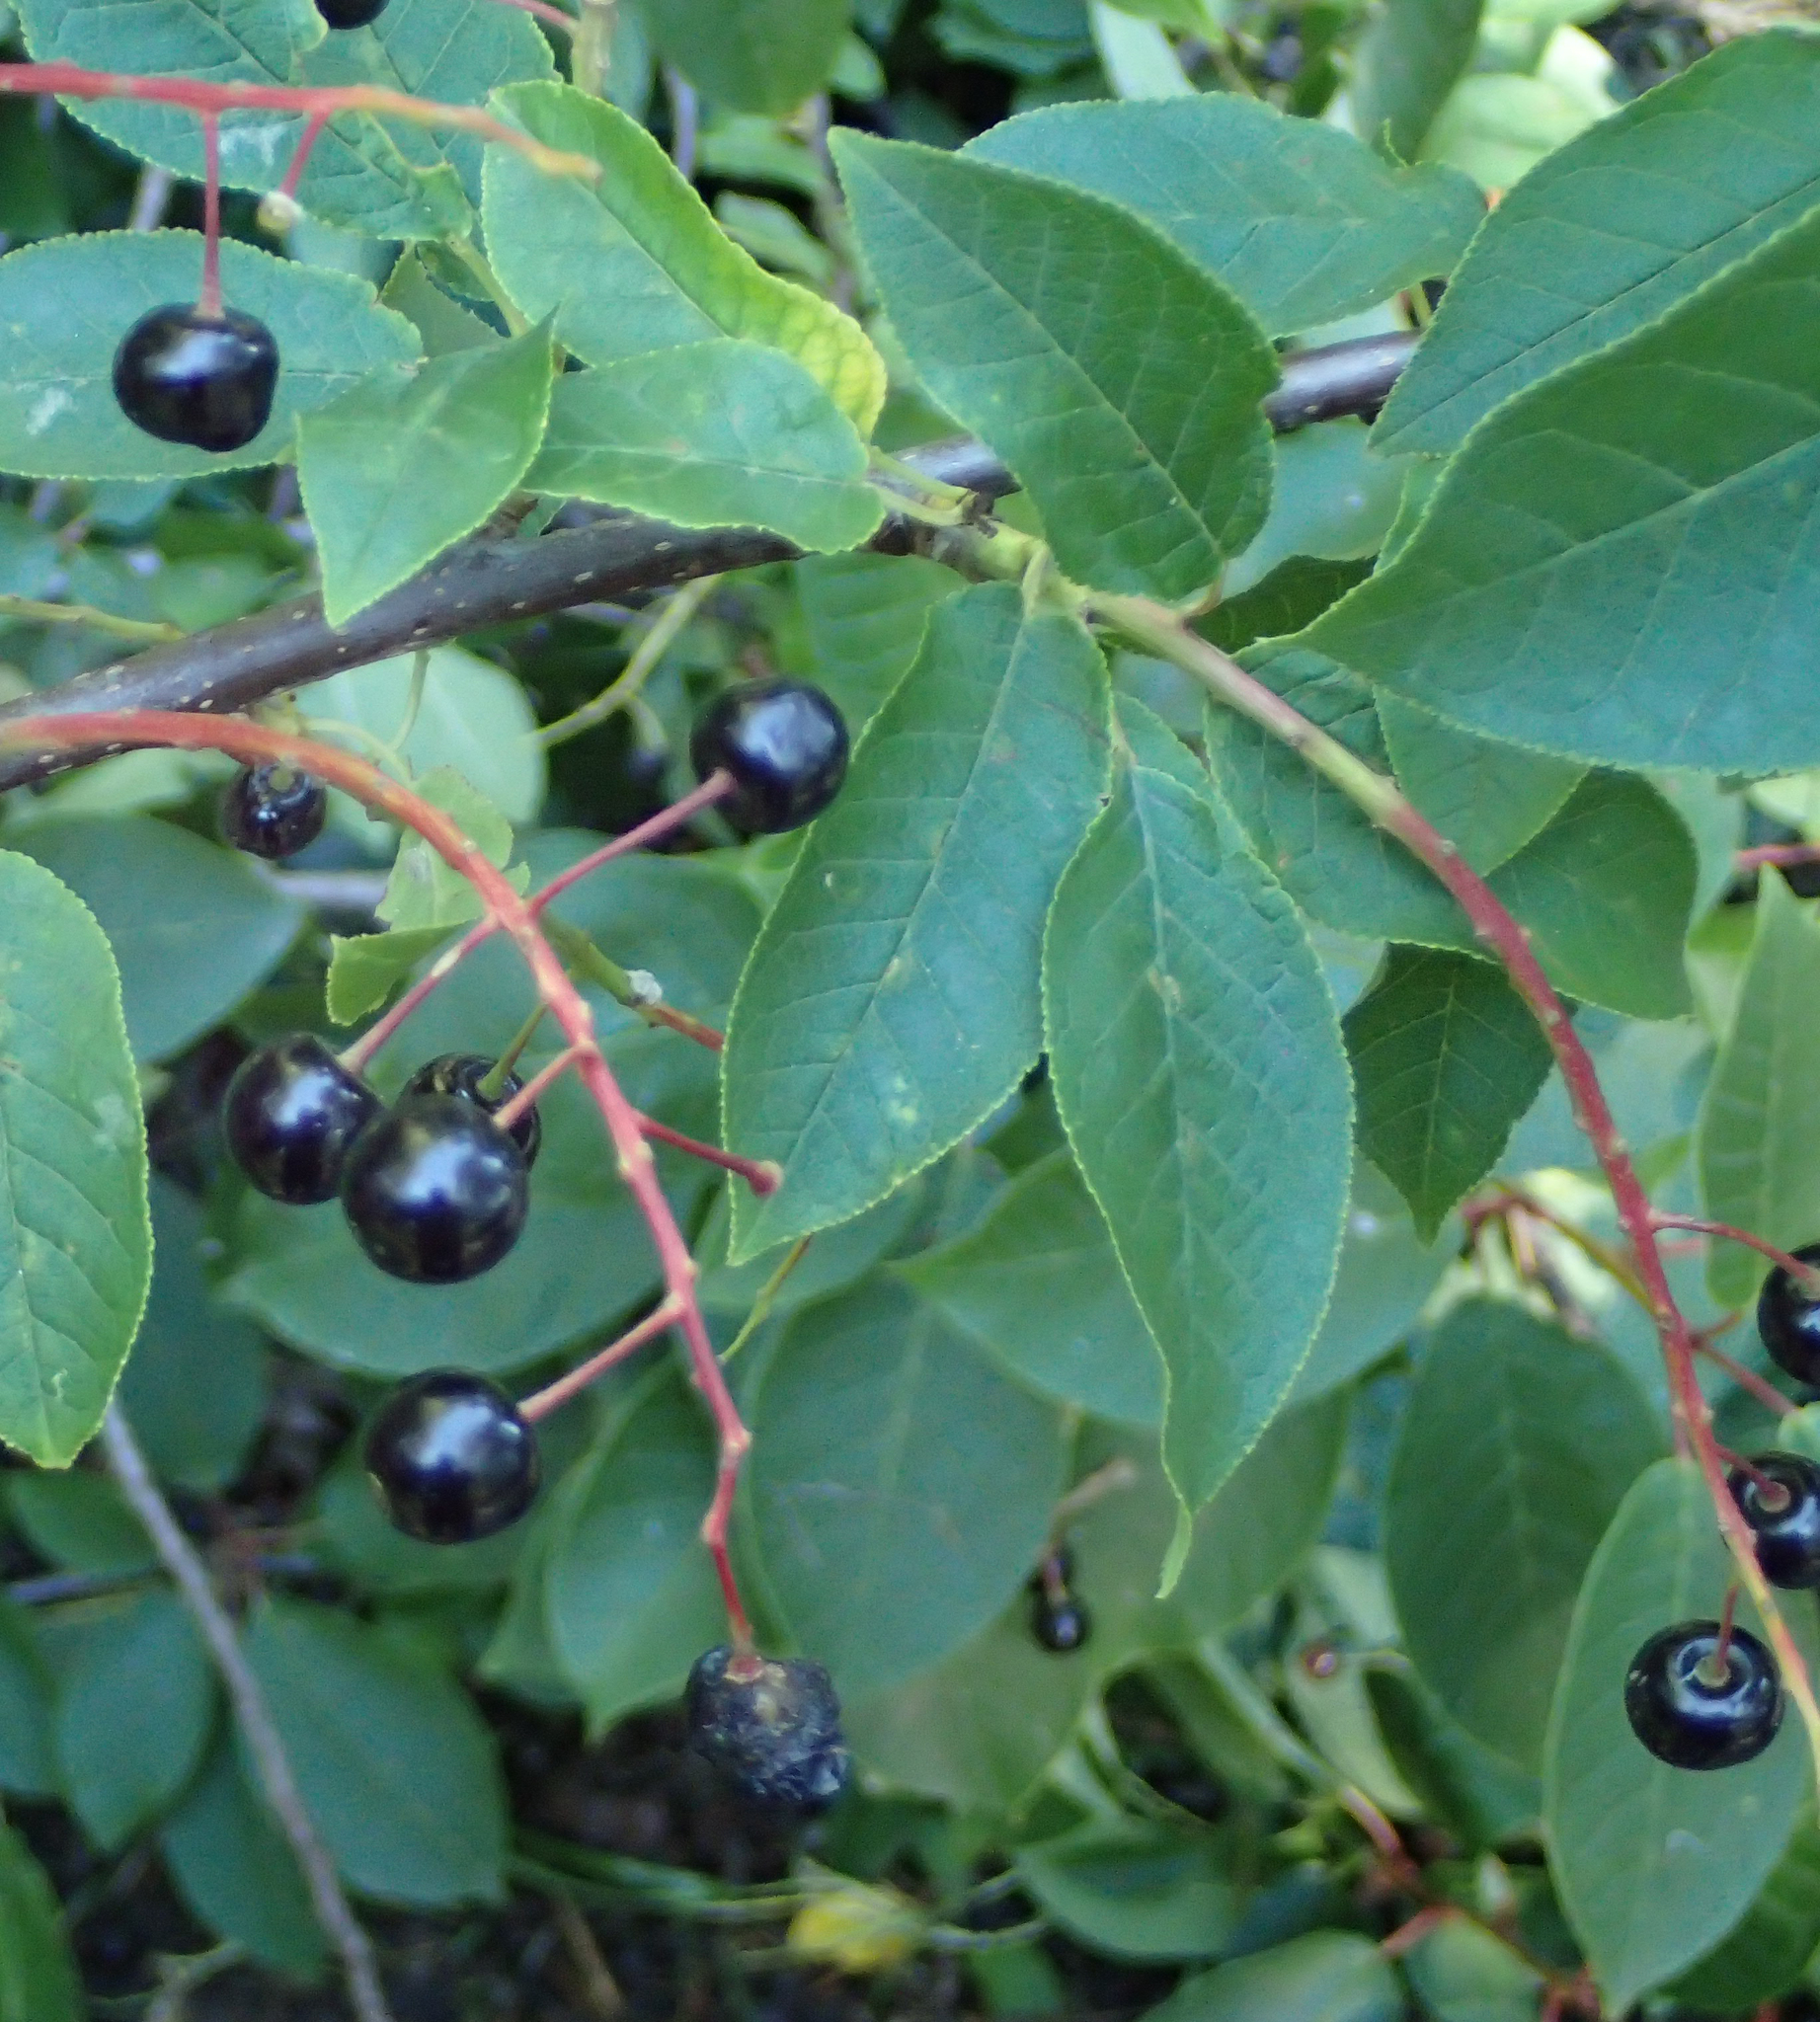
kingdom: Plantae
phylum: Tracheophyta
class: Magnoliopsida
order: Rosales
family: Rosaceae
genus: Prunus
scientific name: Prunus padus
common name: Bird cherry
